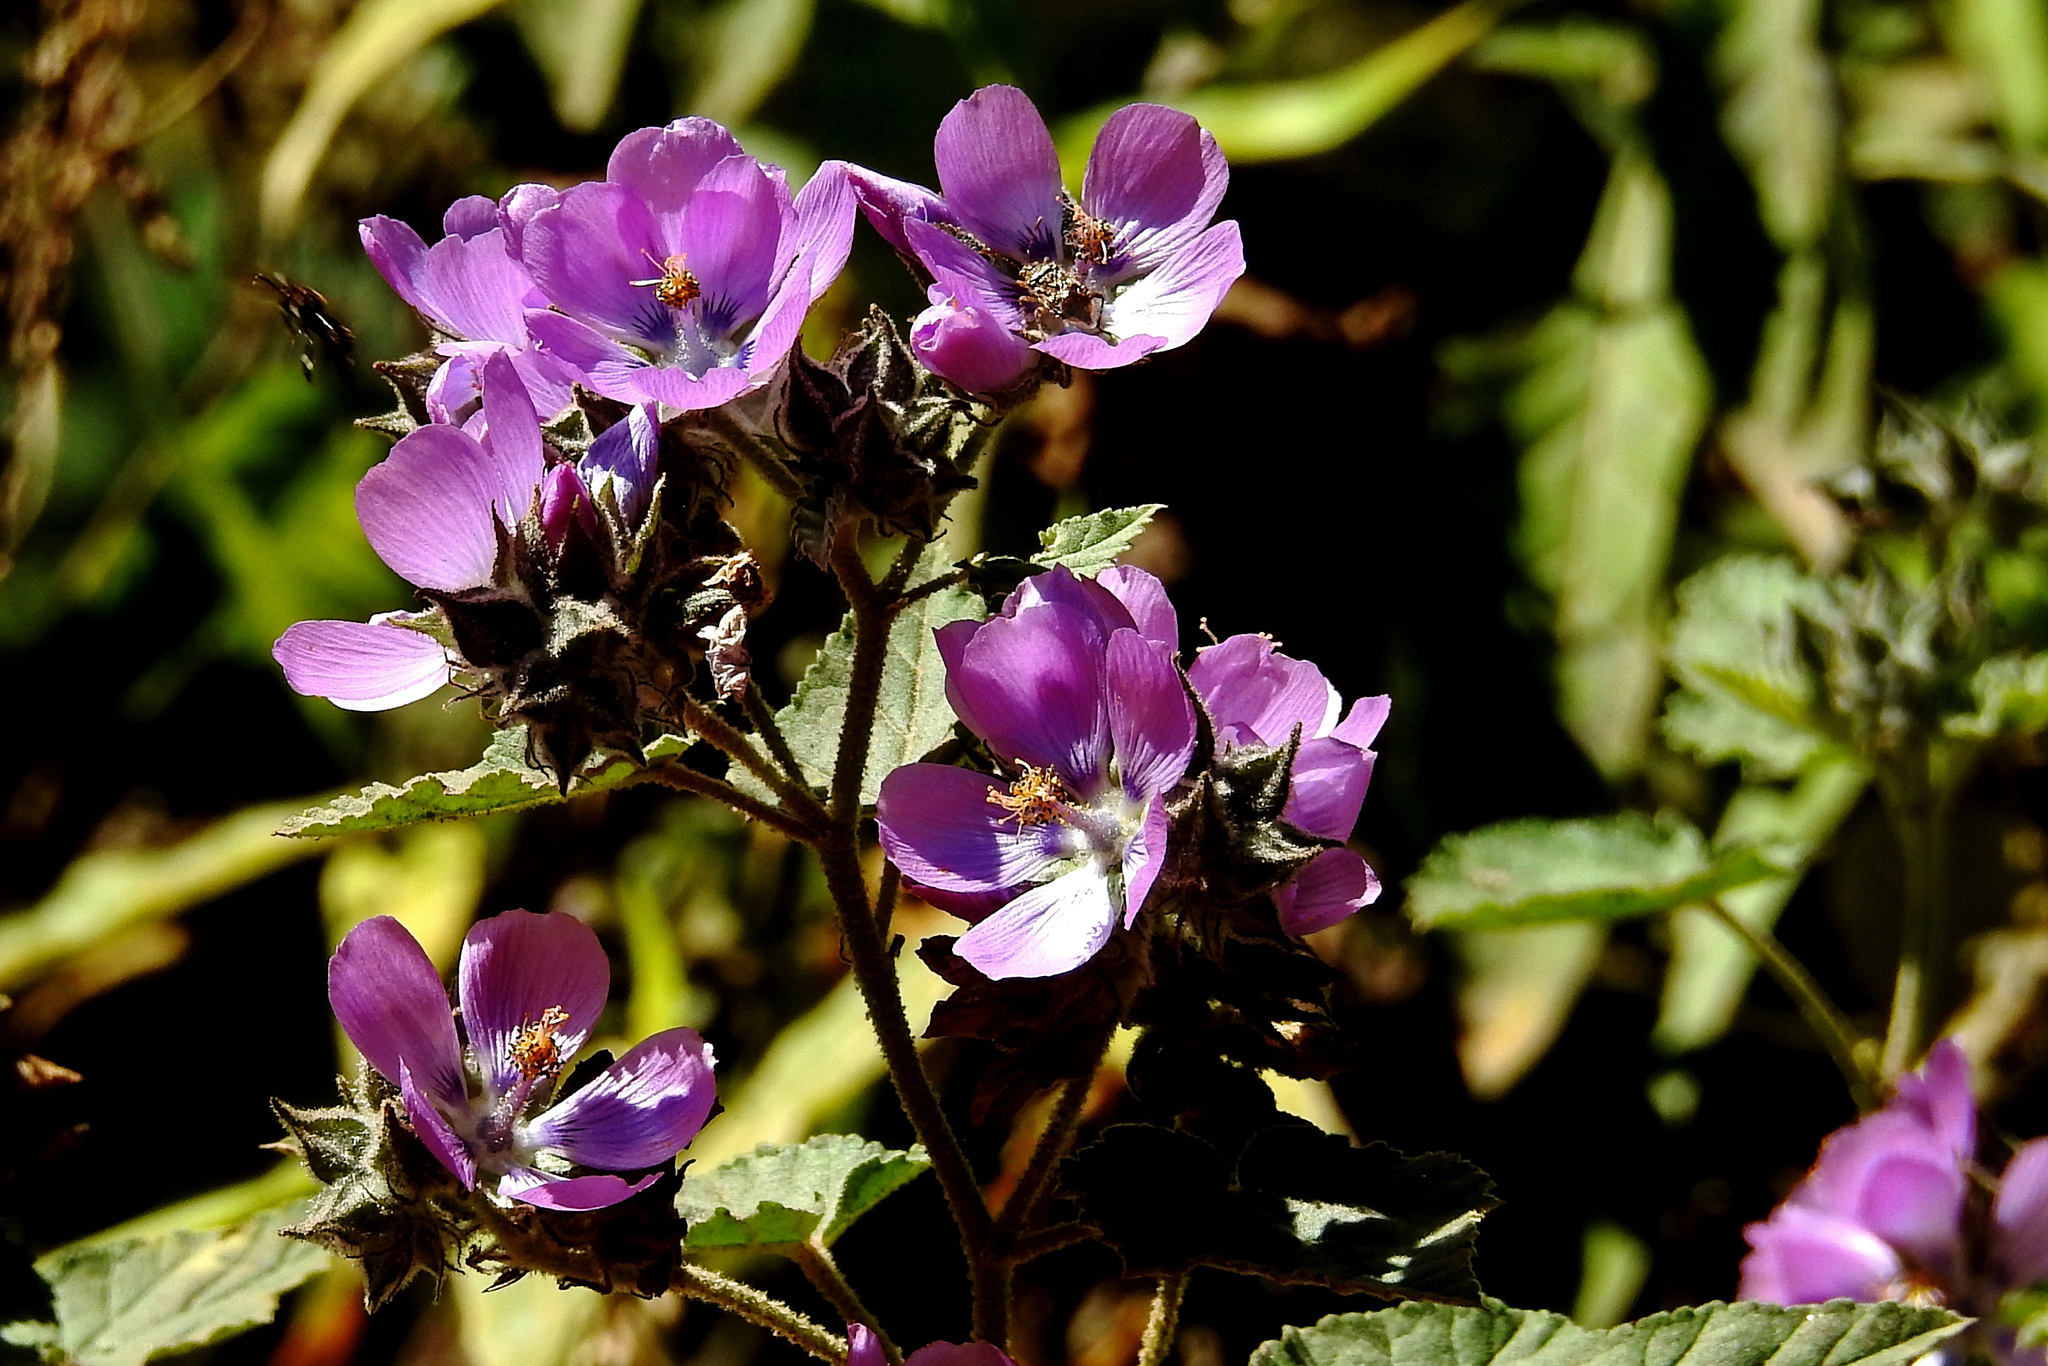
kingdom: Plantae
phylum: Tracheophyta
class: Magnoliopsida
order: Malvales
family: Malvaceae
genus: Tarasa
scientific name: Tarasa capitata
